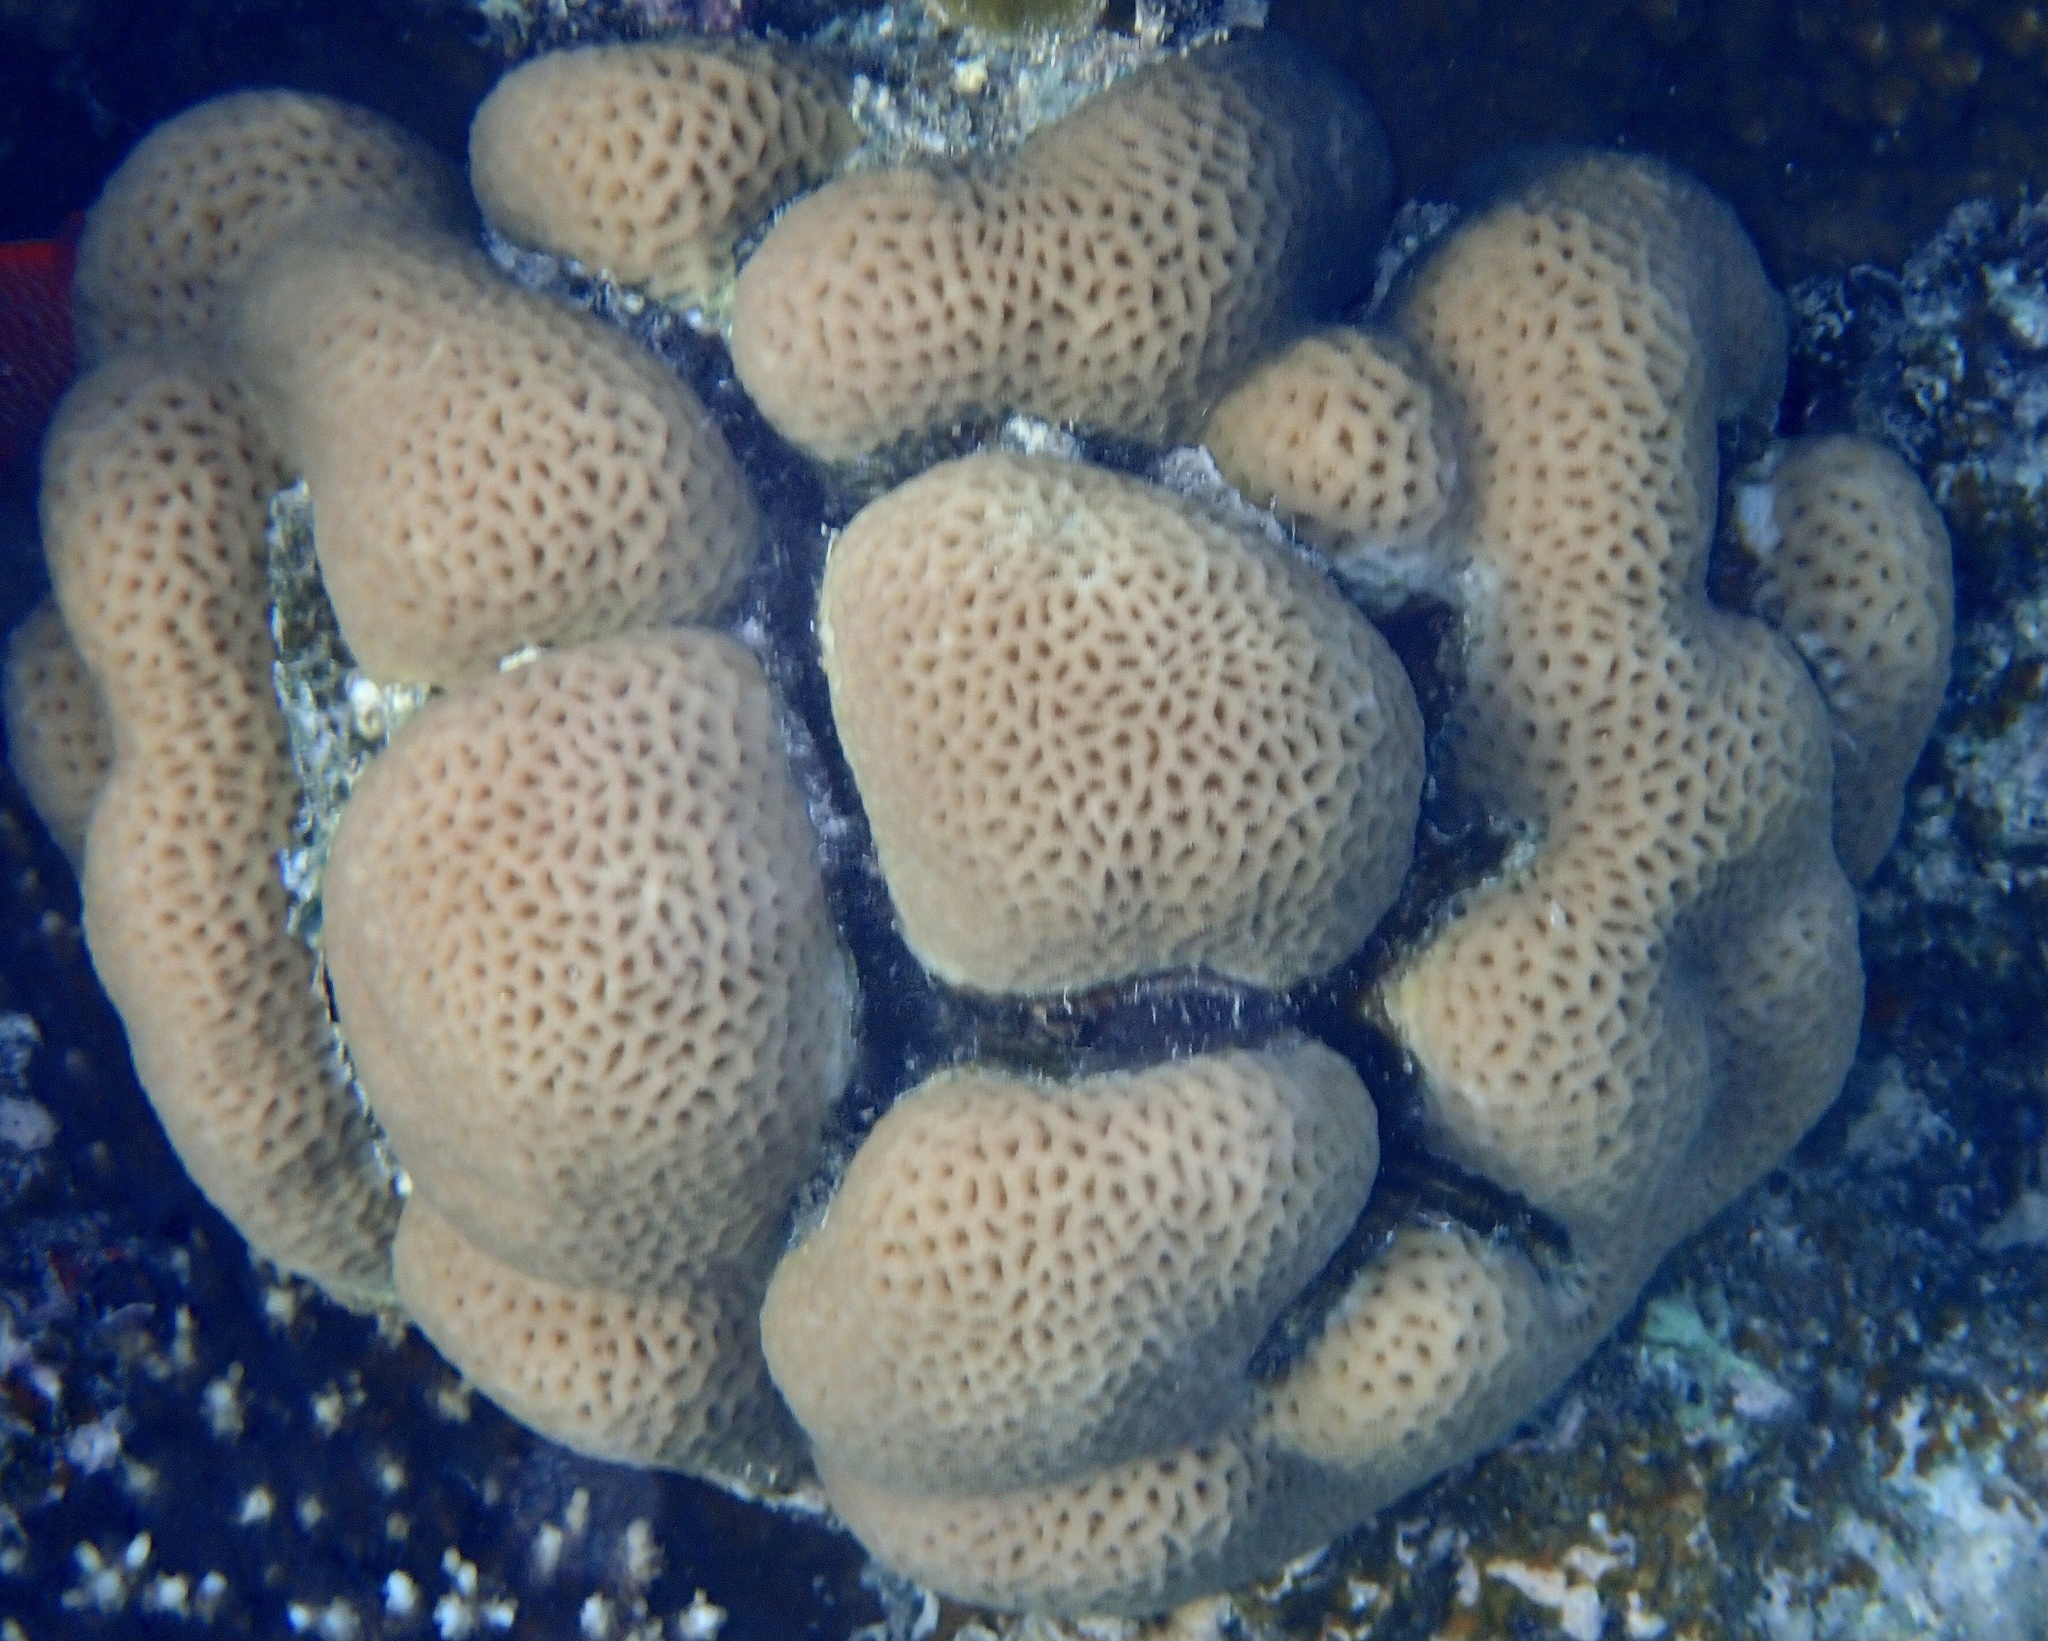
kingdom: Animalia
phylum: Cnidaria
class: Anthozoa
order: Scleractinia
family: Merulinidae
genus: Goniastrea
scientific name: Goniastrea pectinata
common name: Lesser star coral
